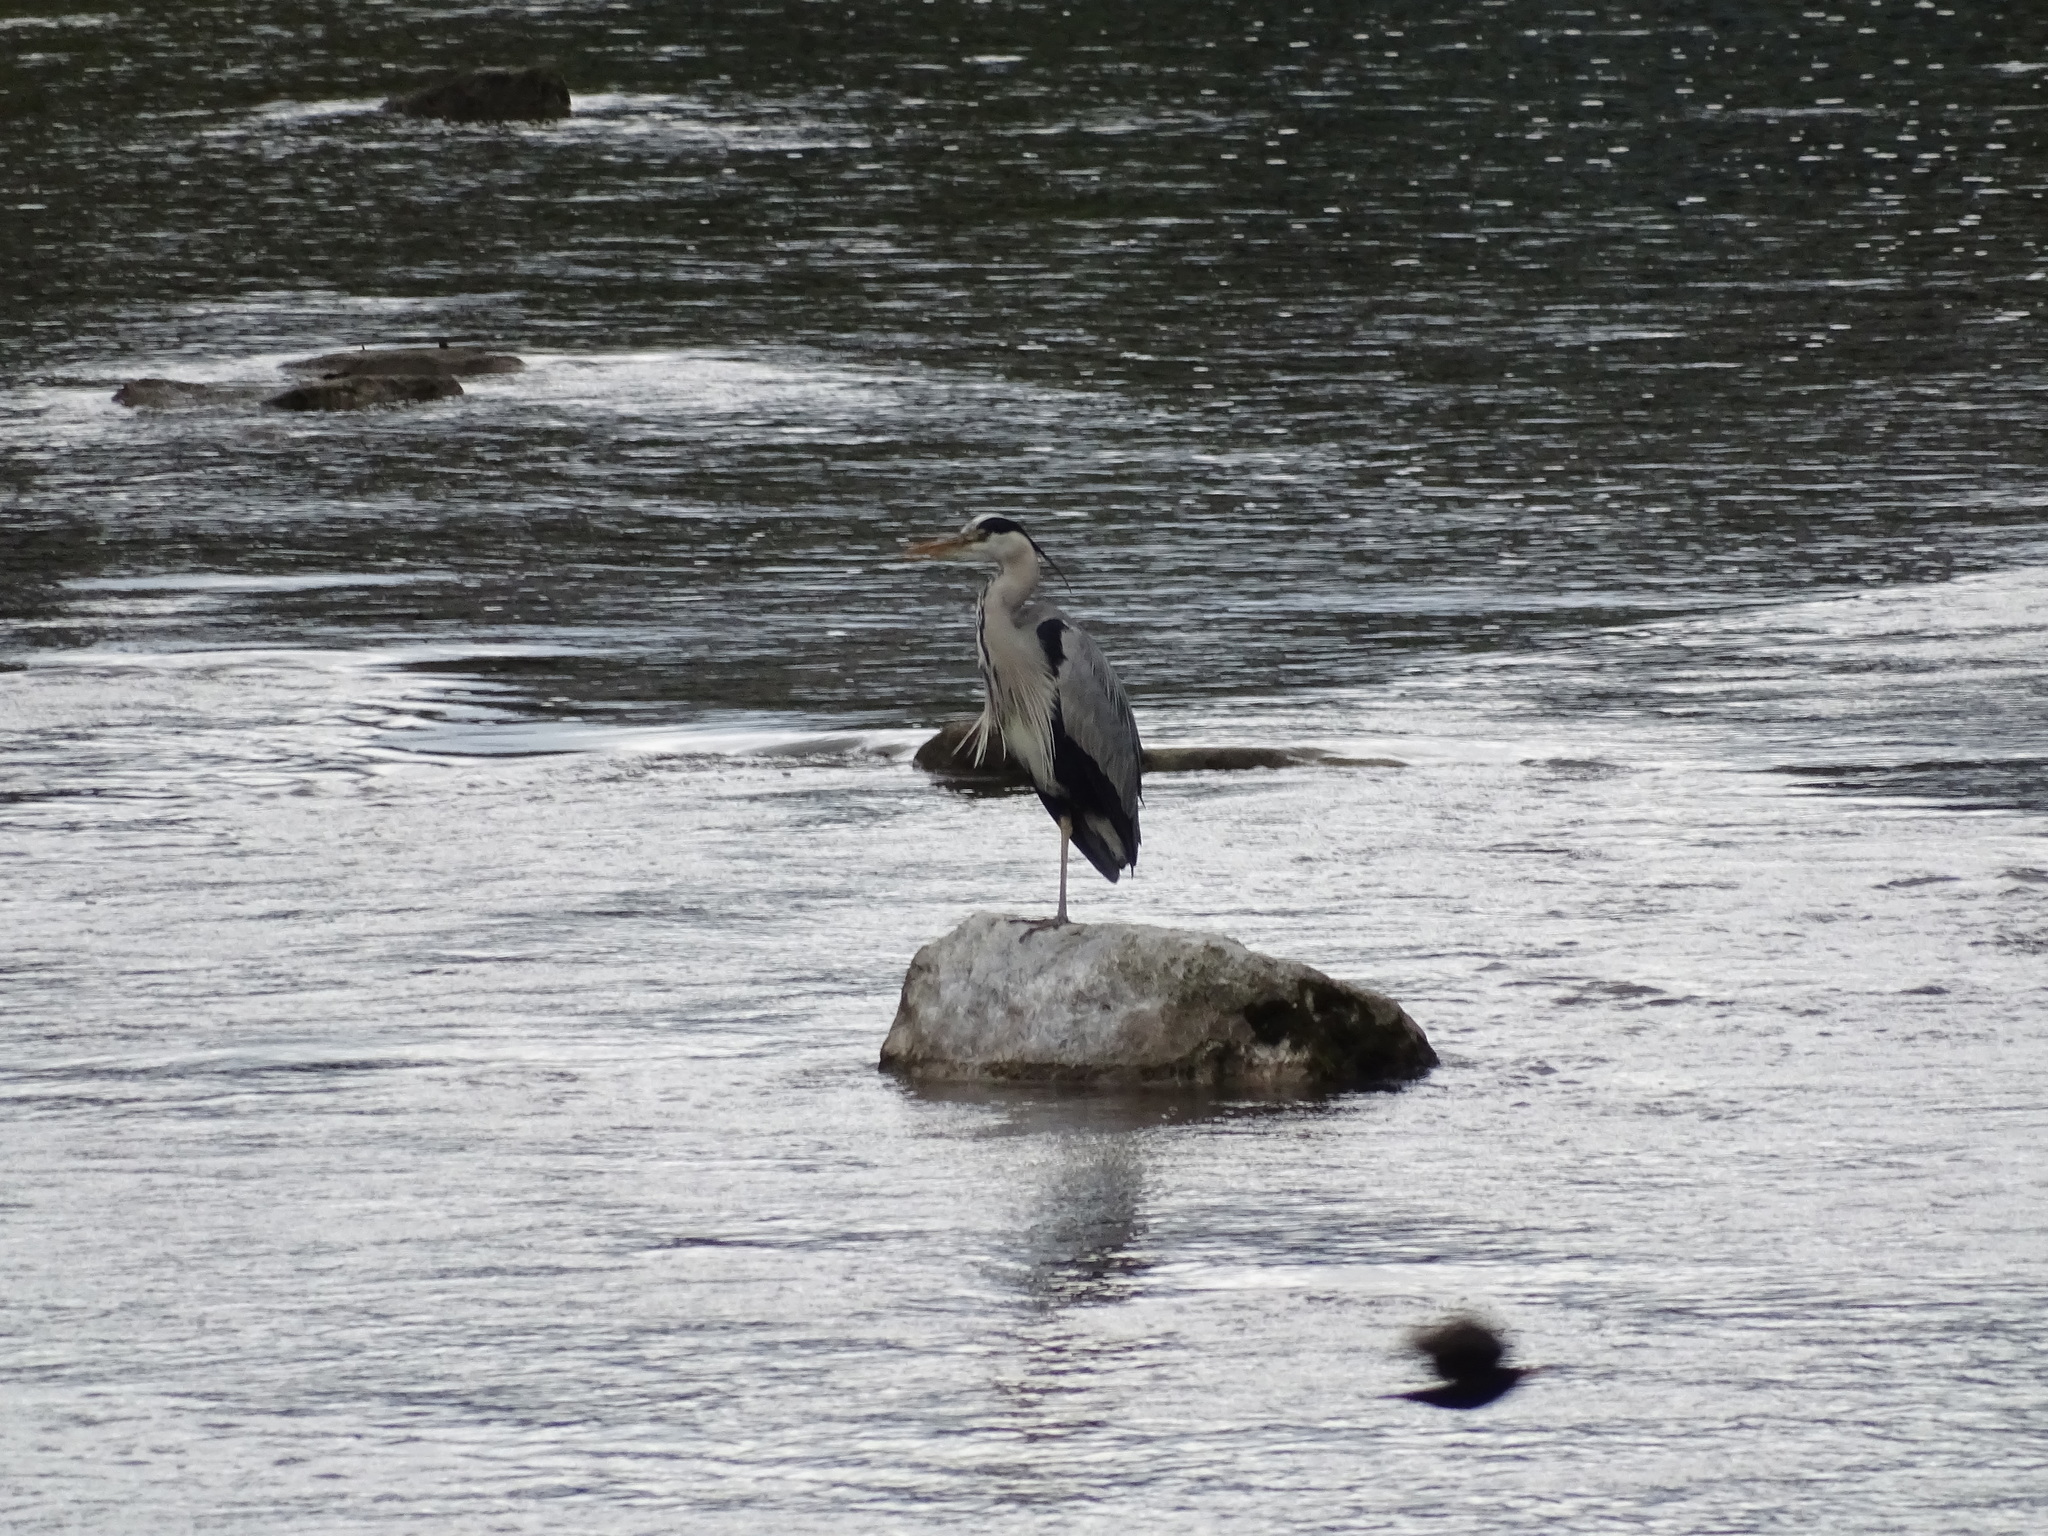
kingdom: Animalia
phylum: Chordata
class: Aves
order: Pelecaniformes
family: Ardeidae
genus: Ardea
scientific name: Ardea cinerea
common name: Grey heron
